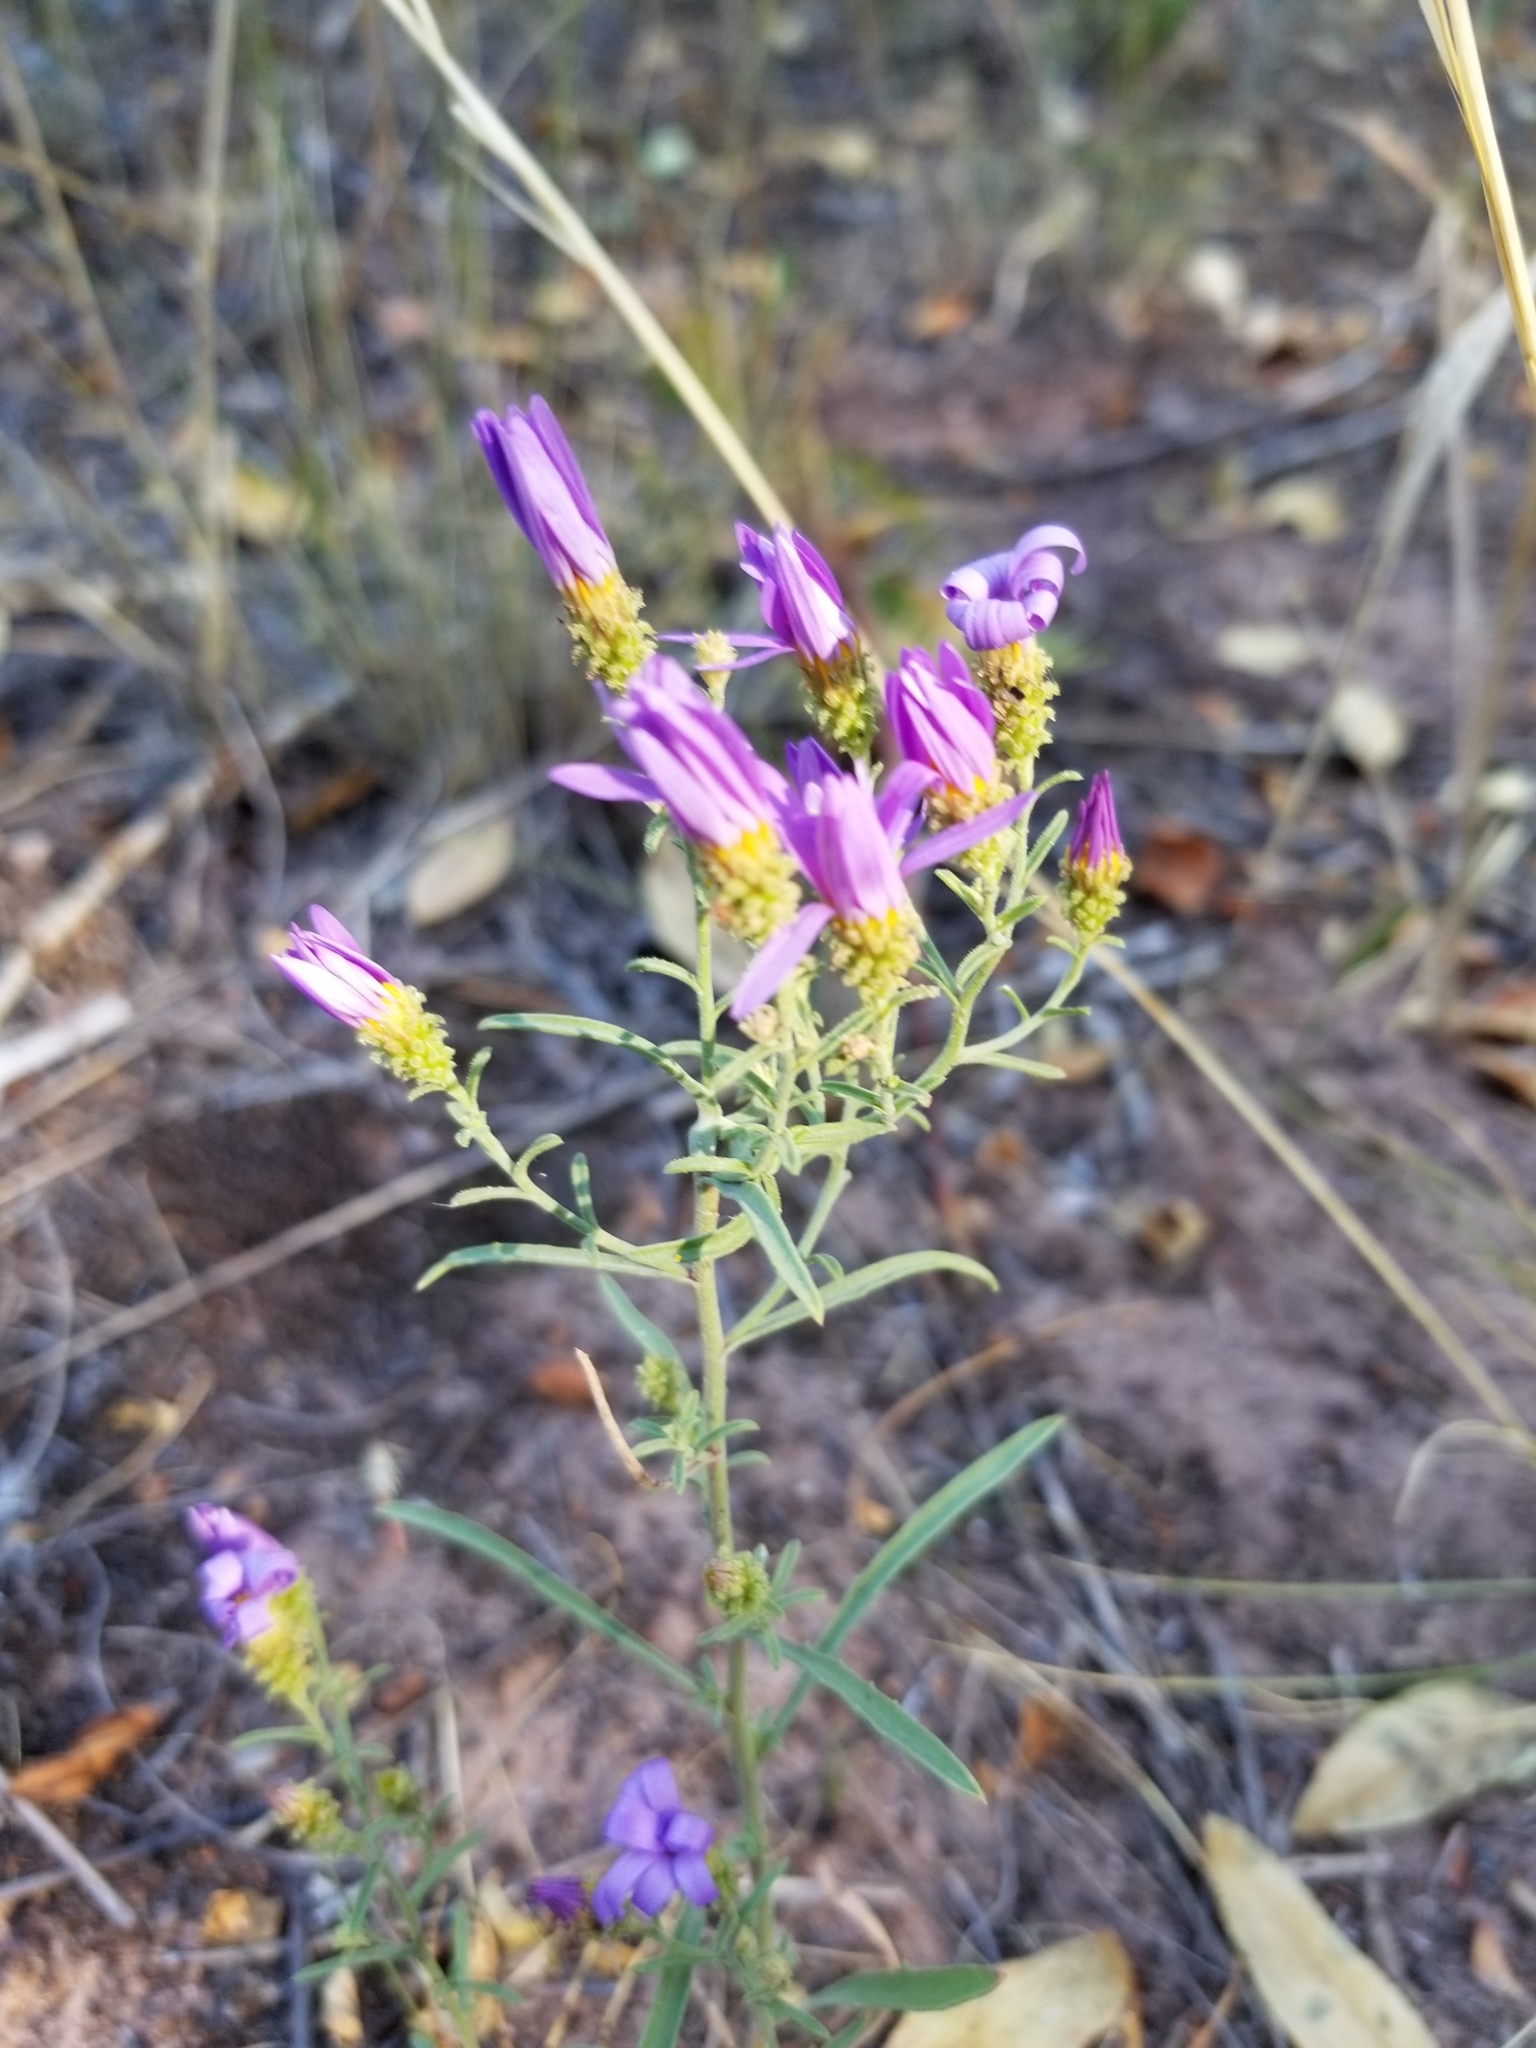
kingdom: Plantae
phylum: Tracheophyta
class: Magnoliopsida
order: Asterales
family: Asteraceae
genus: Dieteria
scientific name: Dieteria canescens
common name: Hoary-aster
